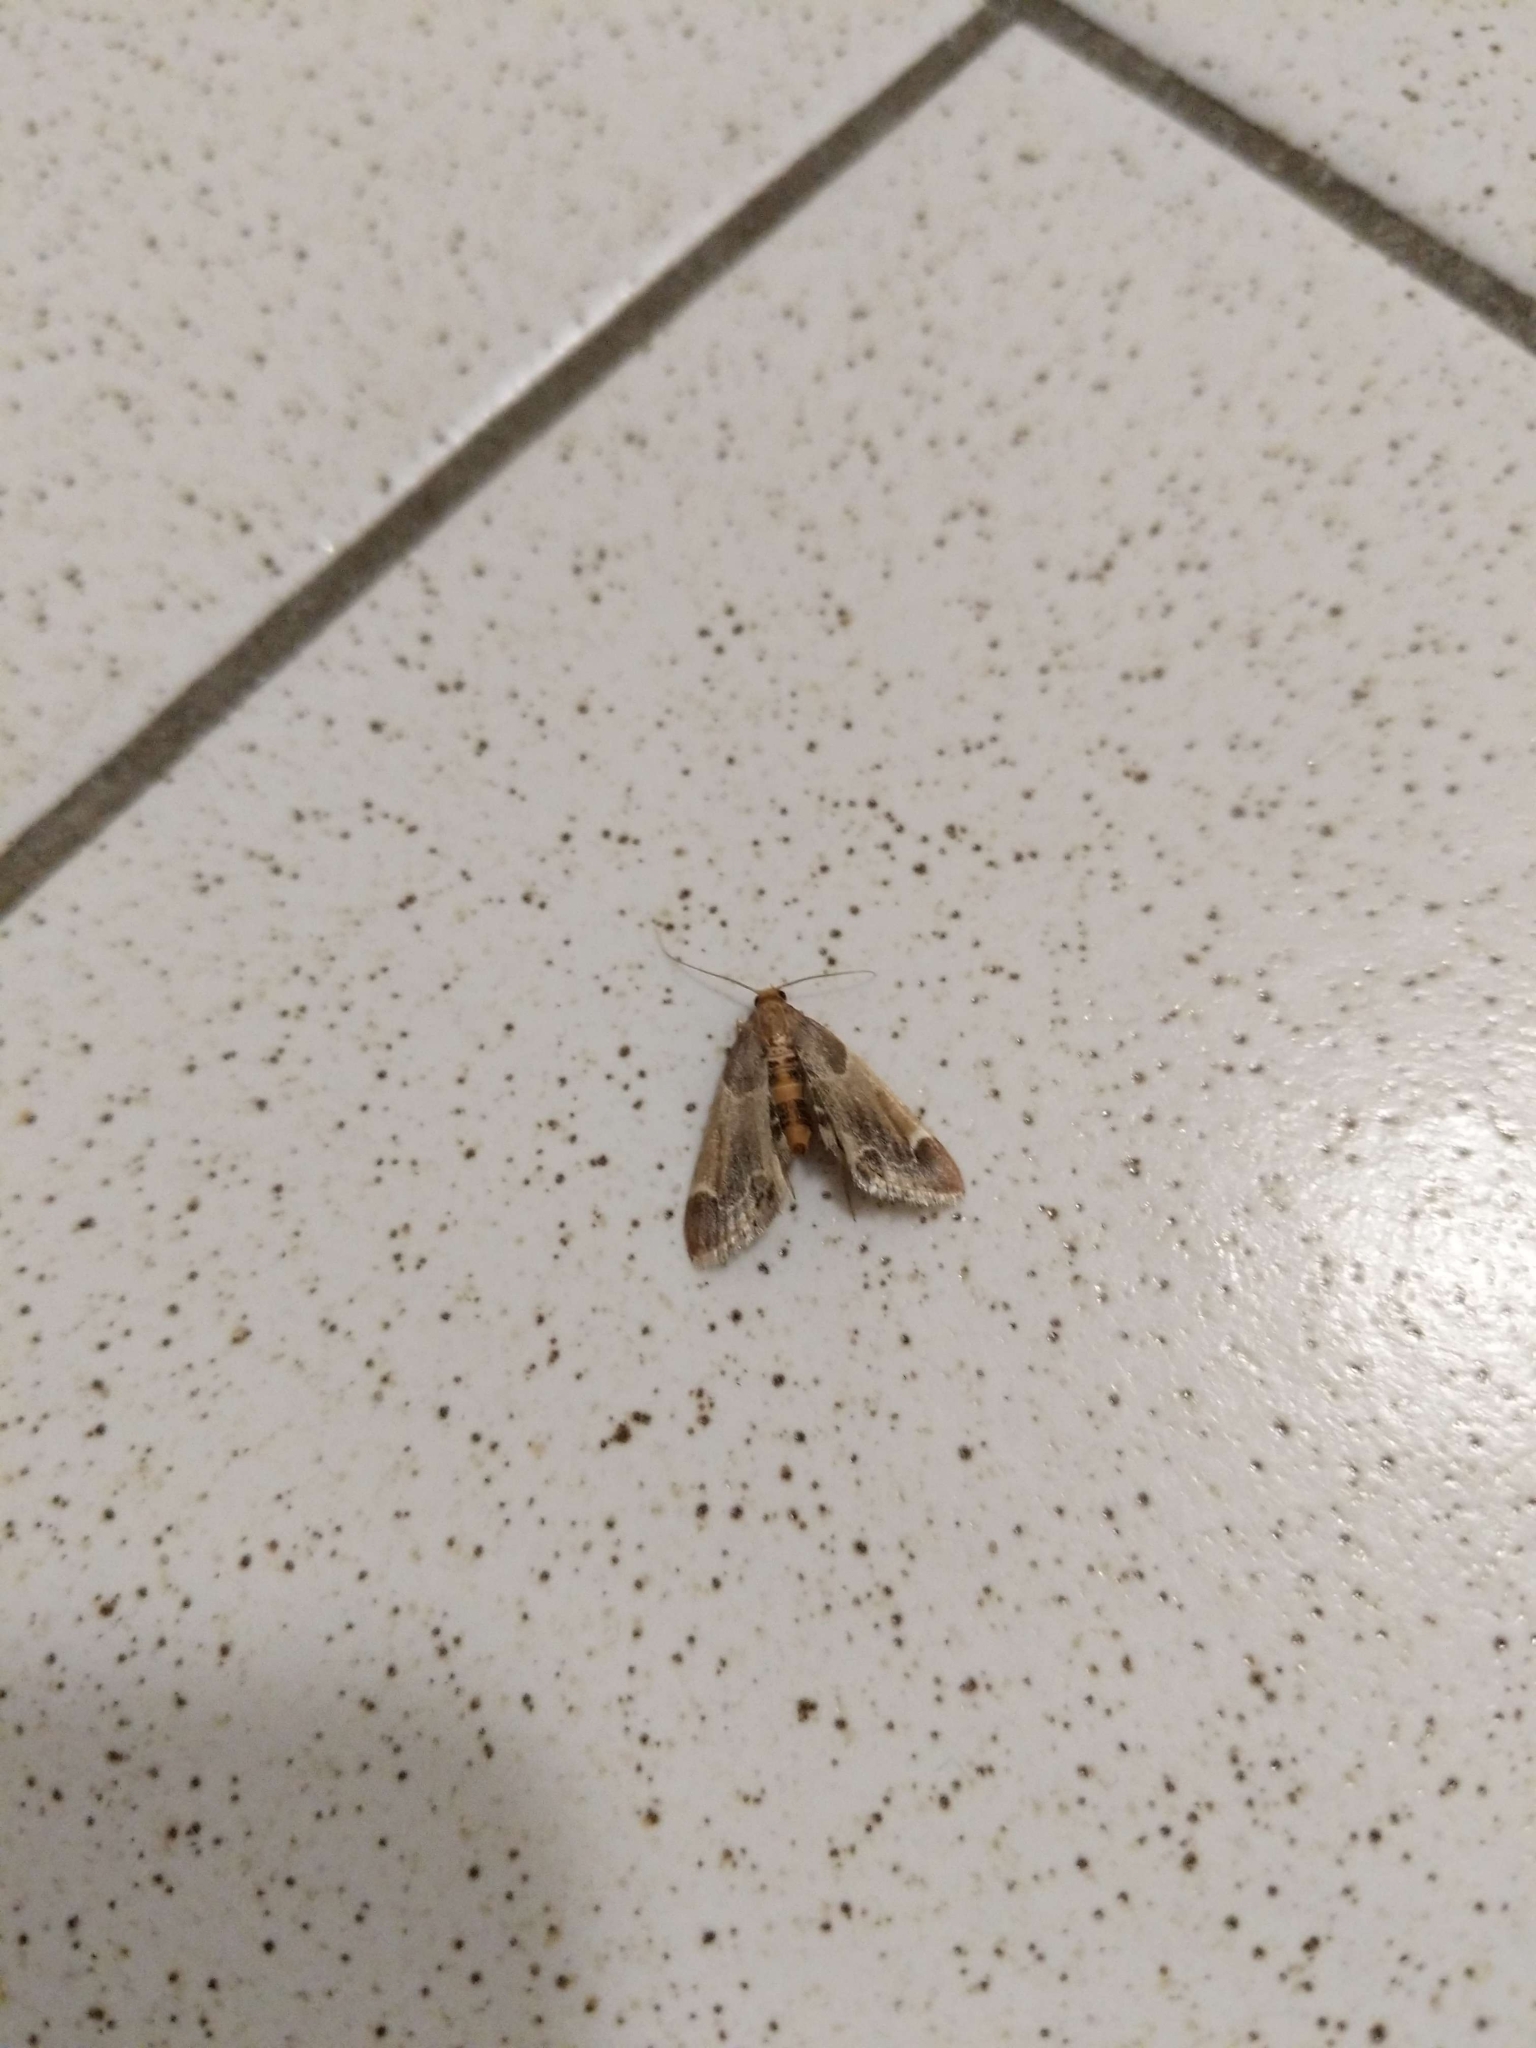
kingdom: Animalia
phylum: Arthropoda
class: Insecta
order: Lepidoptera
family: Pyralidae
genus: Pyralis
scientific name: Pyralis farinalis
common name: Meal moth
